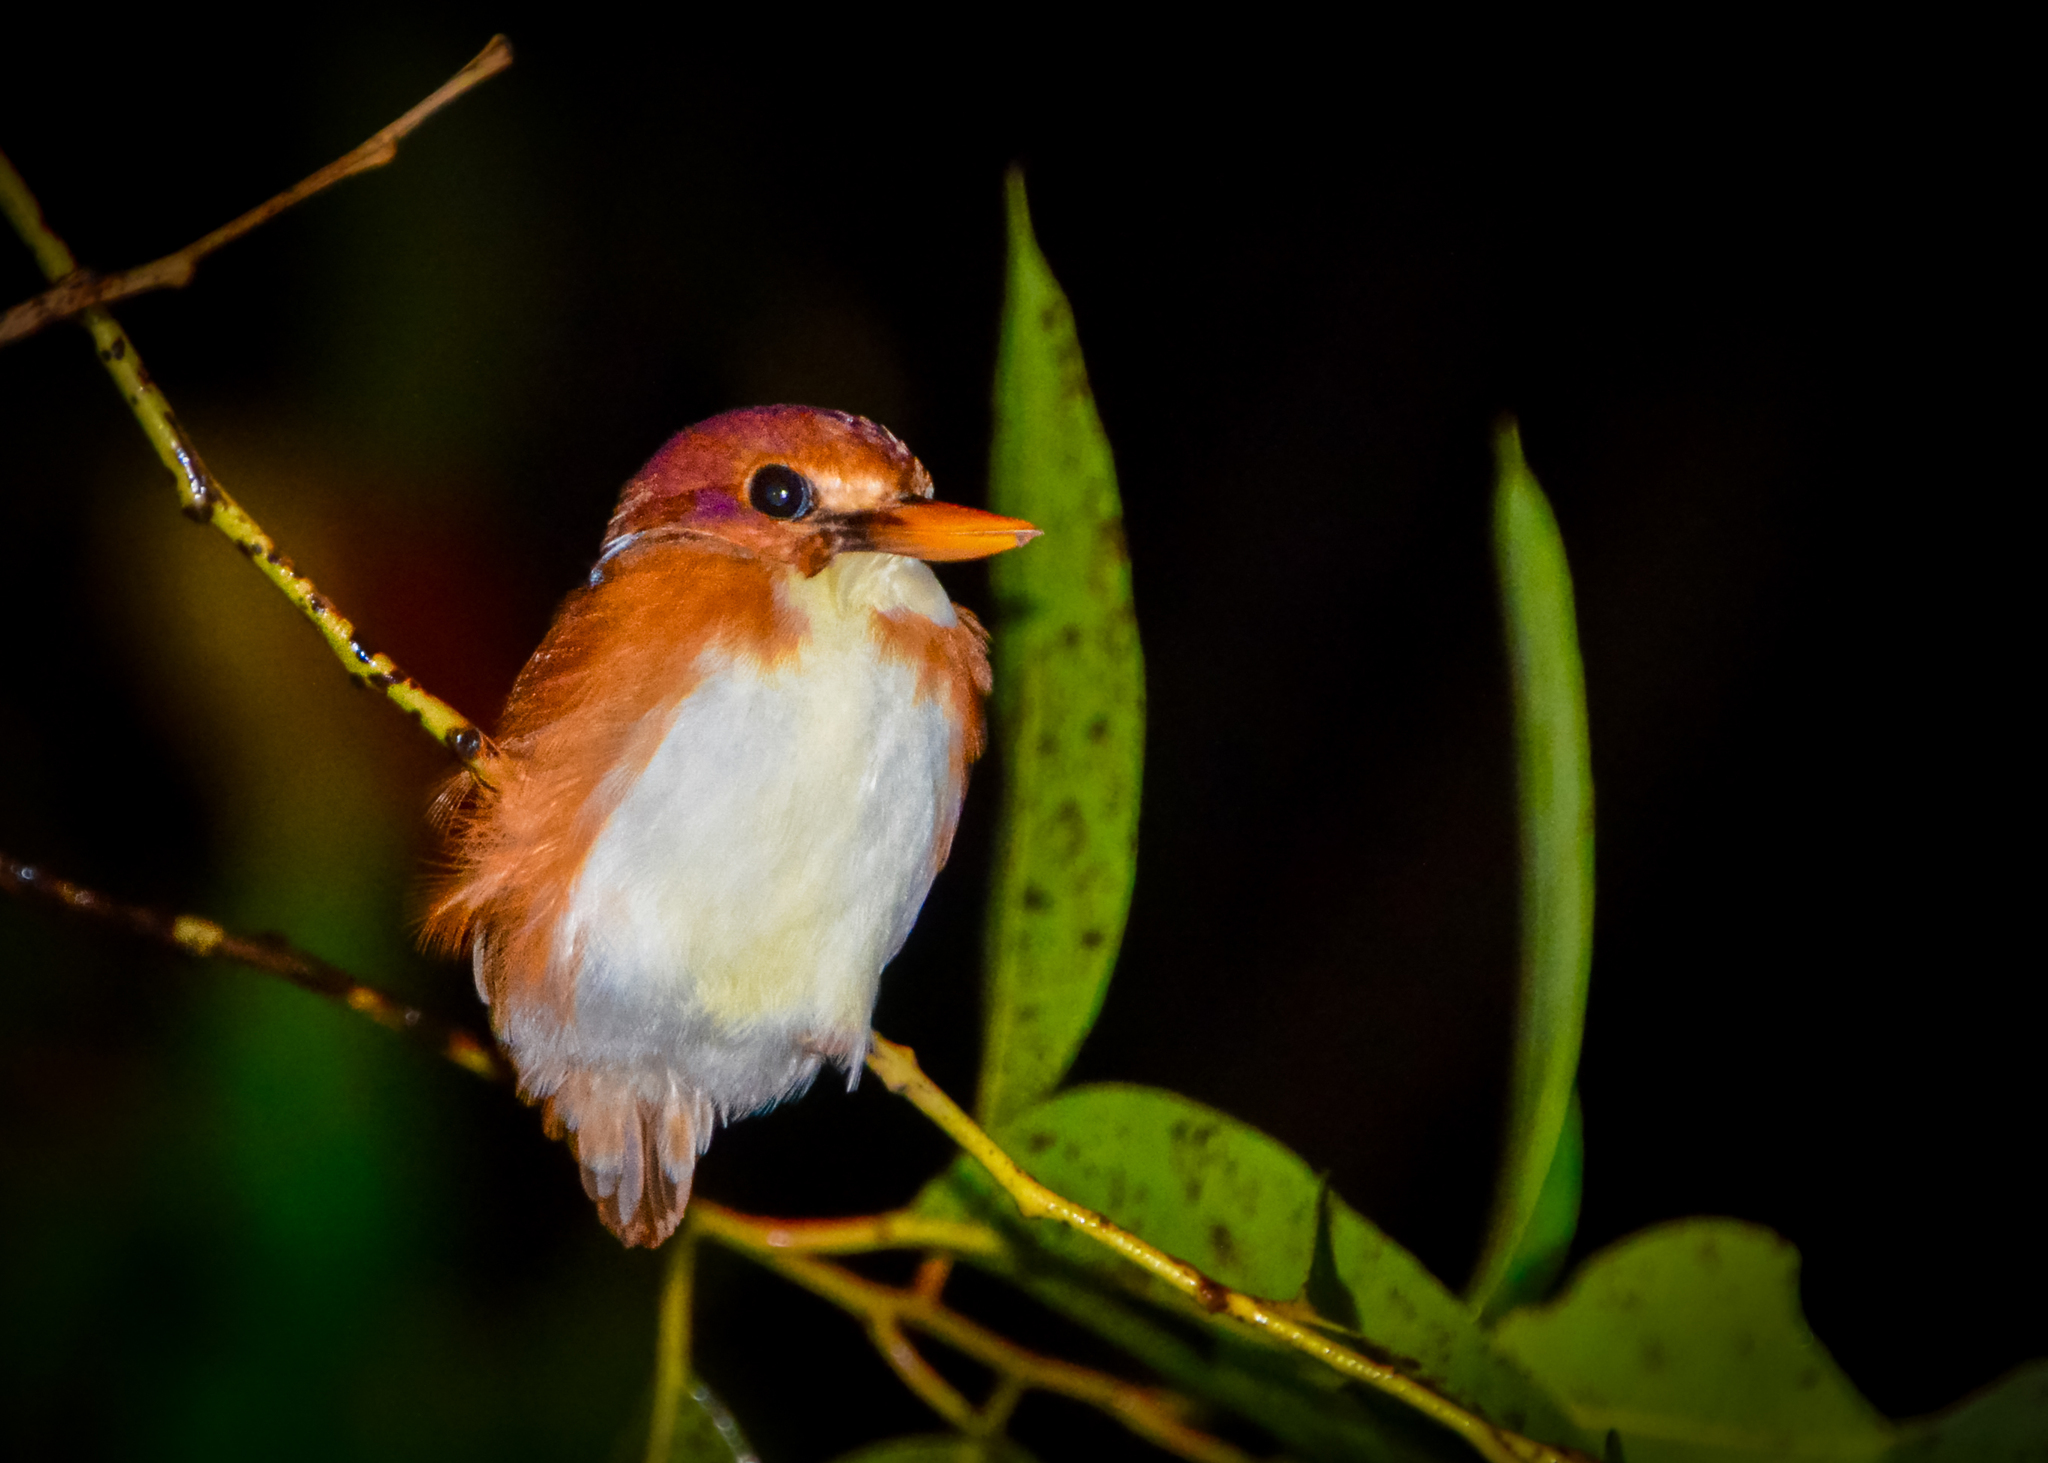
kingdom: Animalia
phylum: Chordata
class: Aves
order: Coraciiformes
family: Alcedinidae
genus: Corythornis
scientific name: Corythornis madagascariensis
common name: Madagascar pygmy-kingfisher
